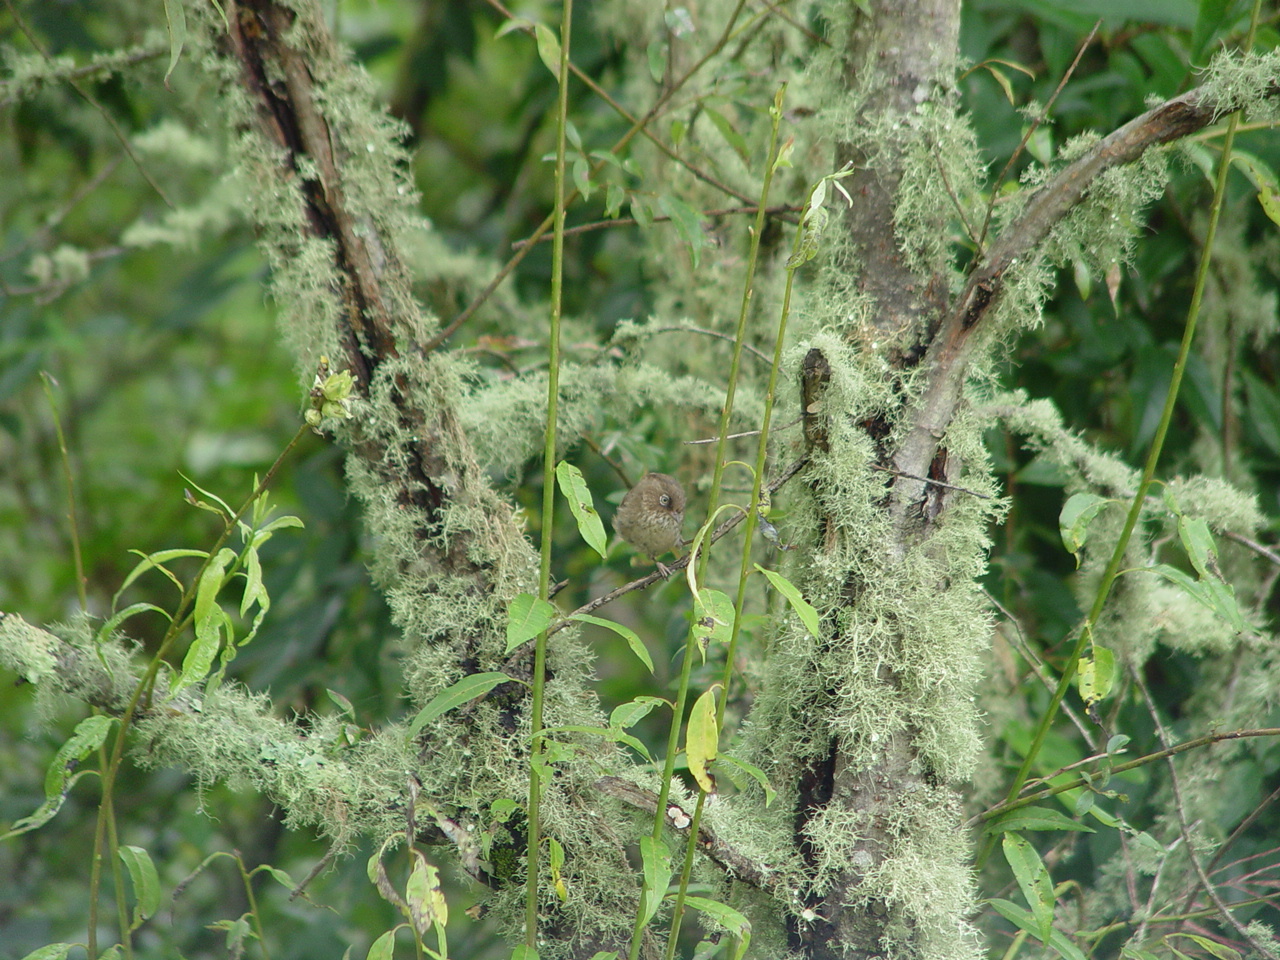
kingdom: Animalia
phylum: Chordata
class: Aves
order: Passeriformes
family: Sylviidae
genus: Fulvetta
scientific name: Fulvetta formosana
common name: Taiwan fulvetta
